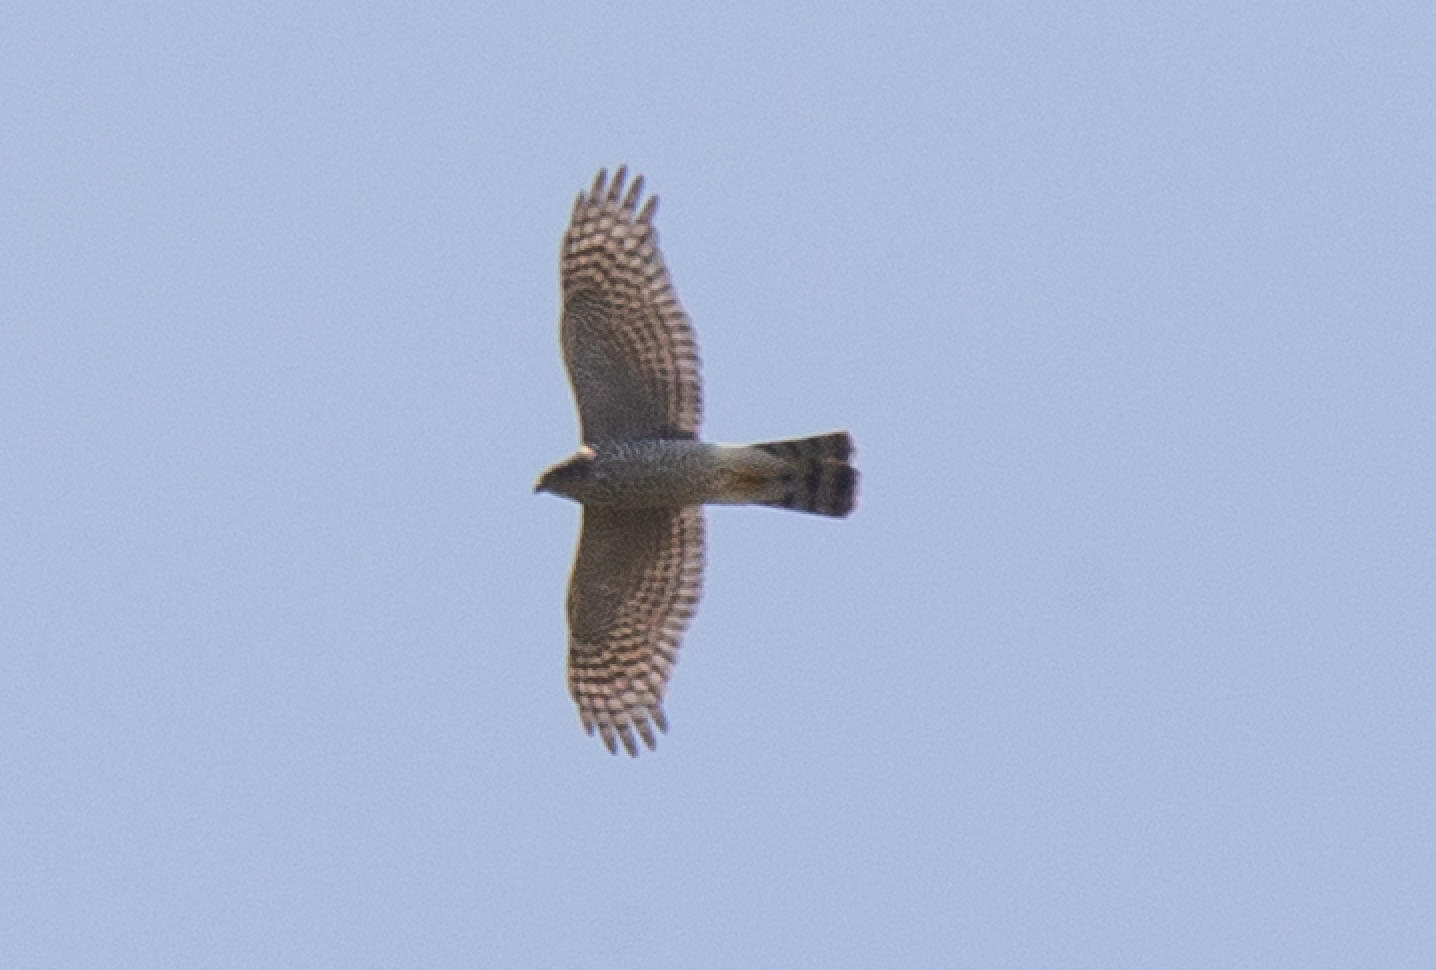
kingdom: Animalia
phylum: Chordata
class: Aves
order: Accipitriformes
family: Accipitridae
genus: Accipiter
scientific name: Accipiter nisus
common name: Eurasian sparrowhawk
